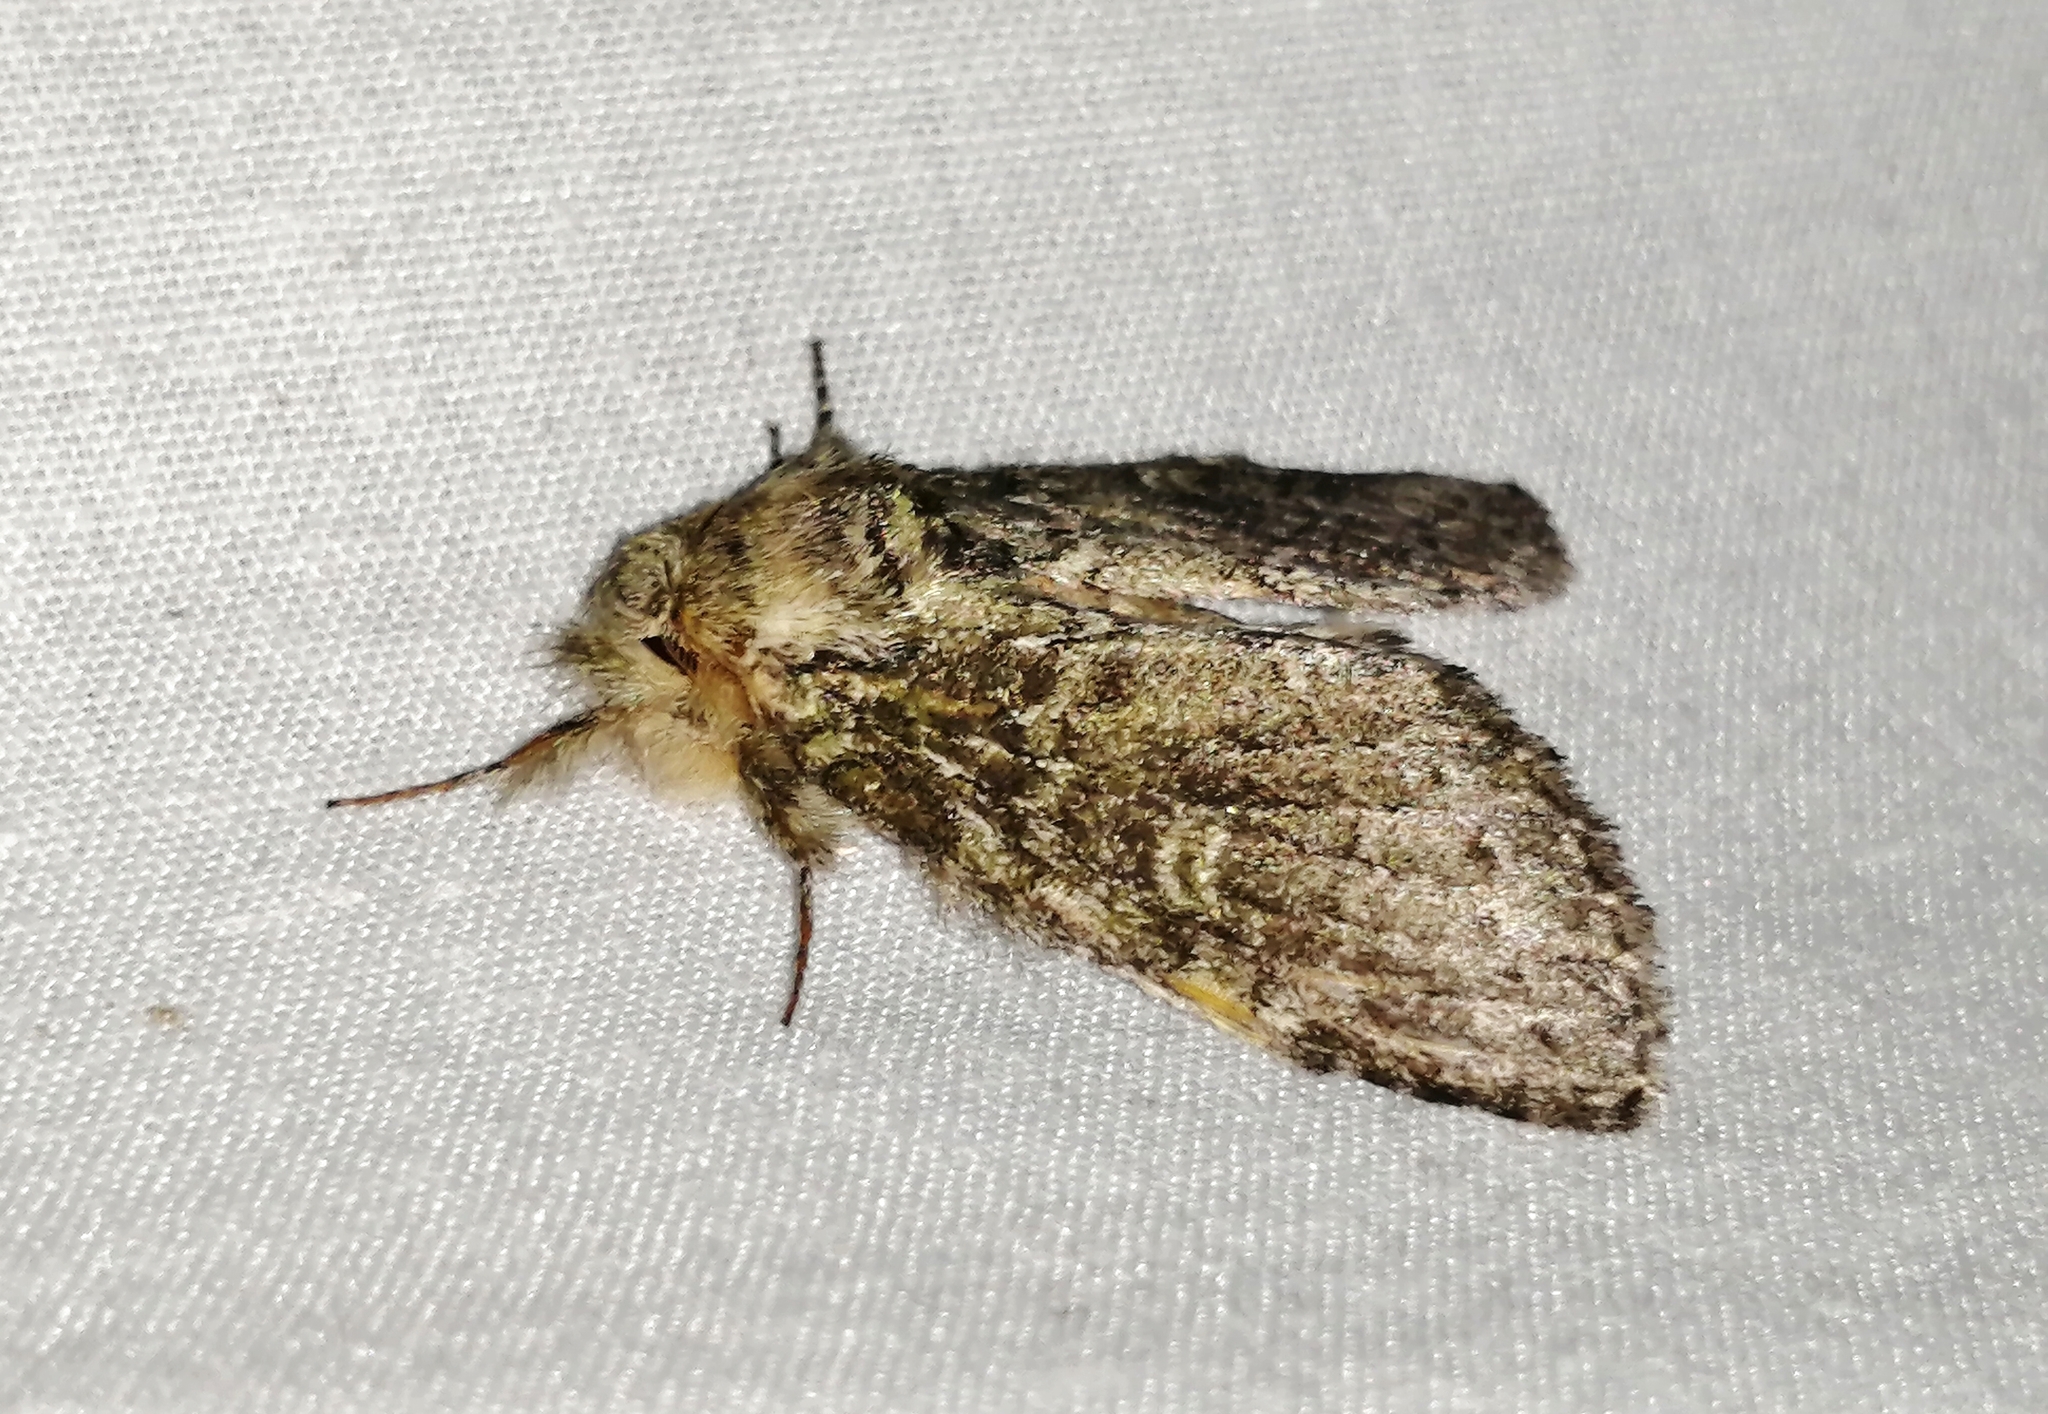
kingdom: Animalia
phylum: Arthropoda
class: Insecta
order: Lepidoptera
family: Notodontidae
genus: Notodonta
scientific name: Notodonta torva
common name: Large dark prominent
